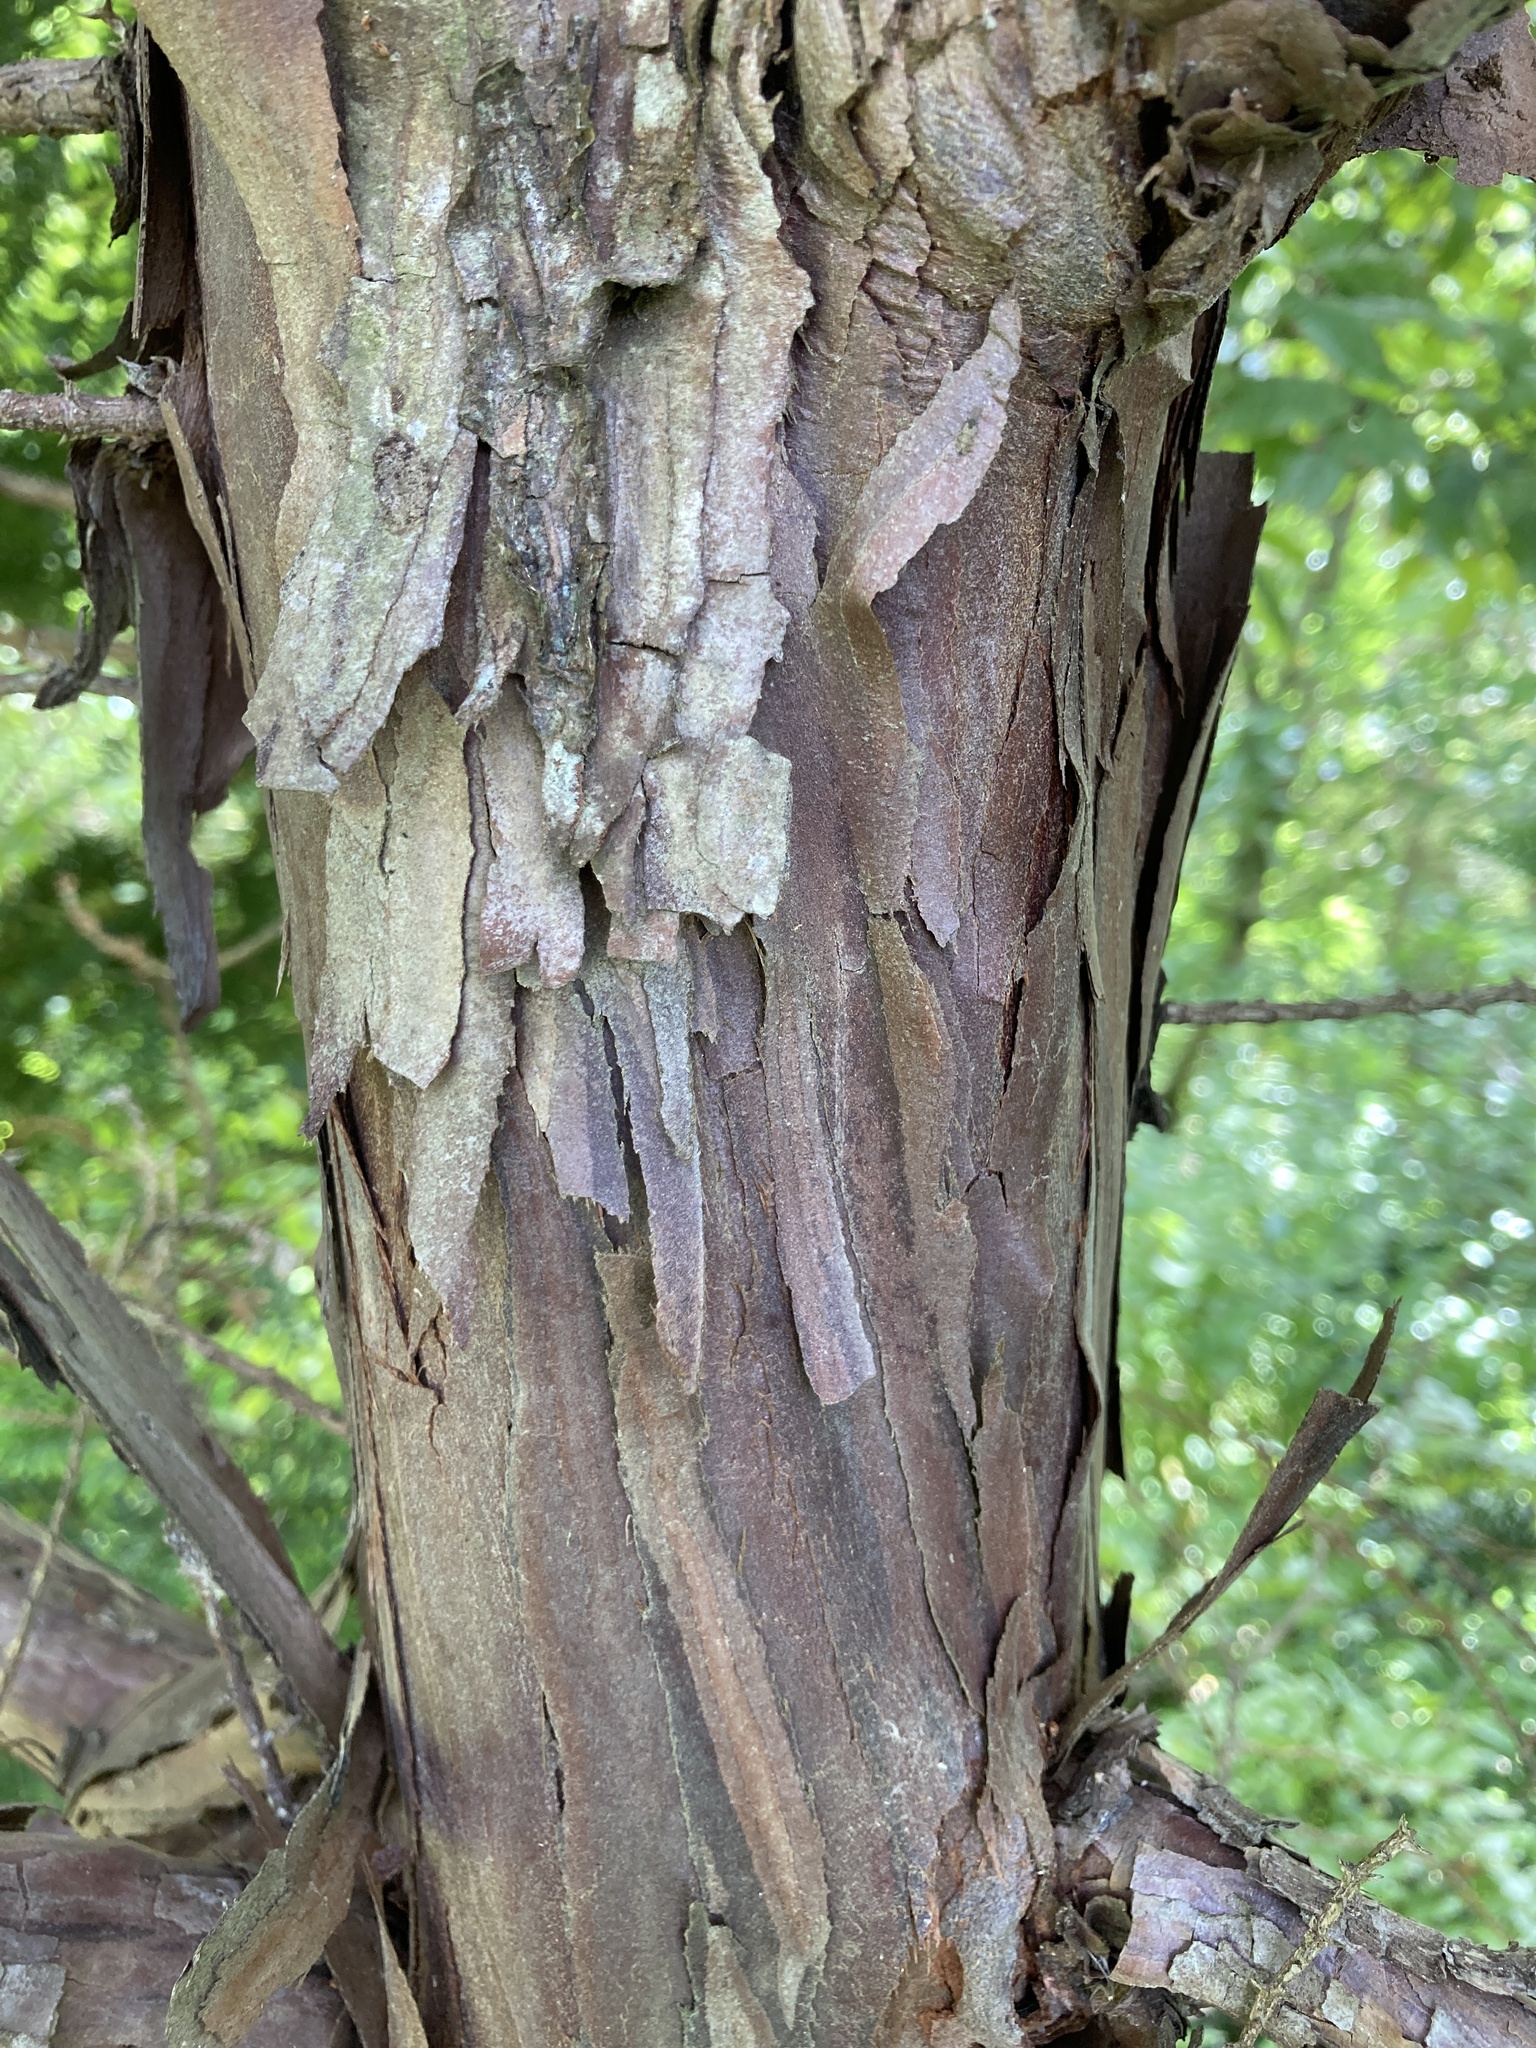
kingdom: Plantae
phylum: Tracheophyta
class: Pinopsida
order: Pinales
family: Cupressaceae
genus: Libocedrus
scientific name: Libocedrus plumosa
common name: New zealand cedar
